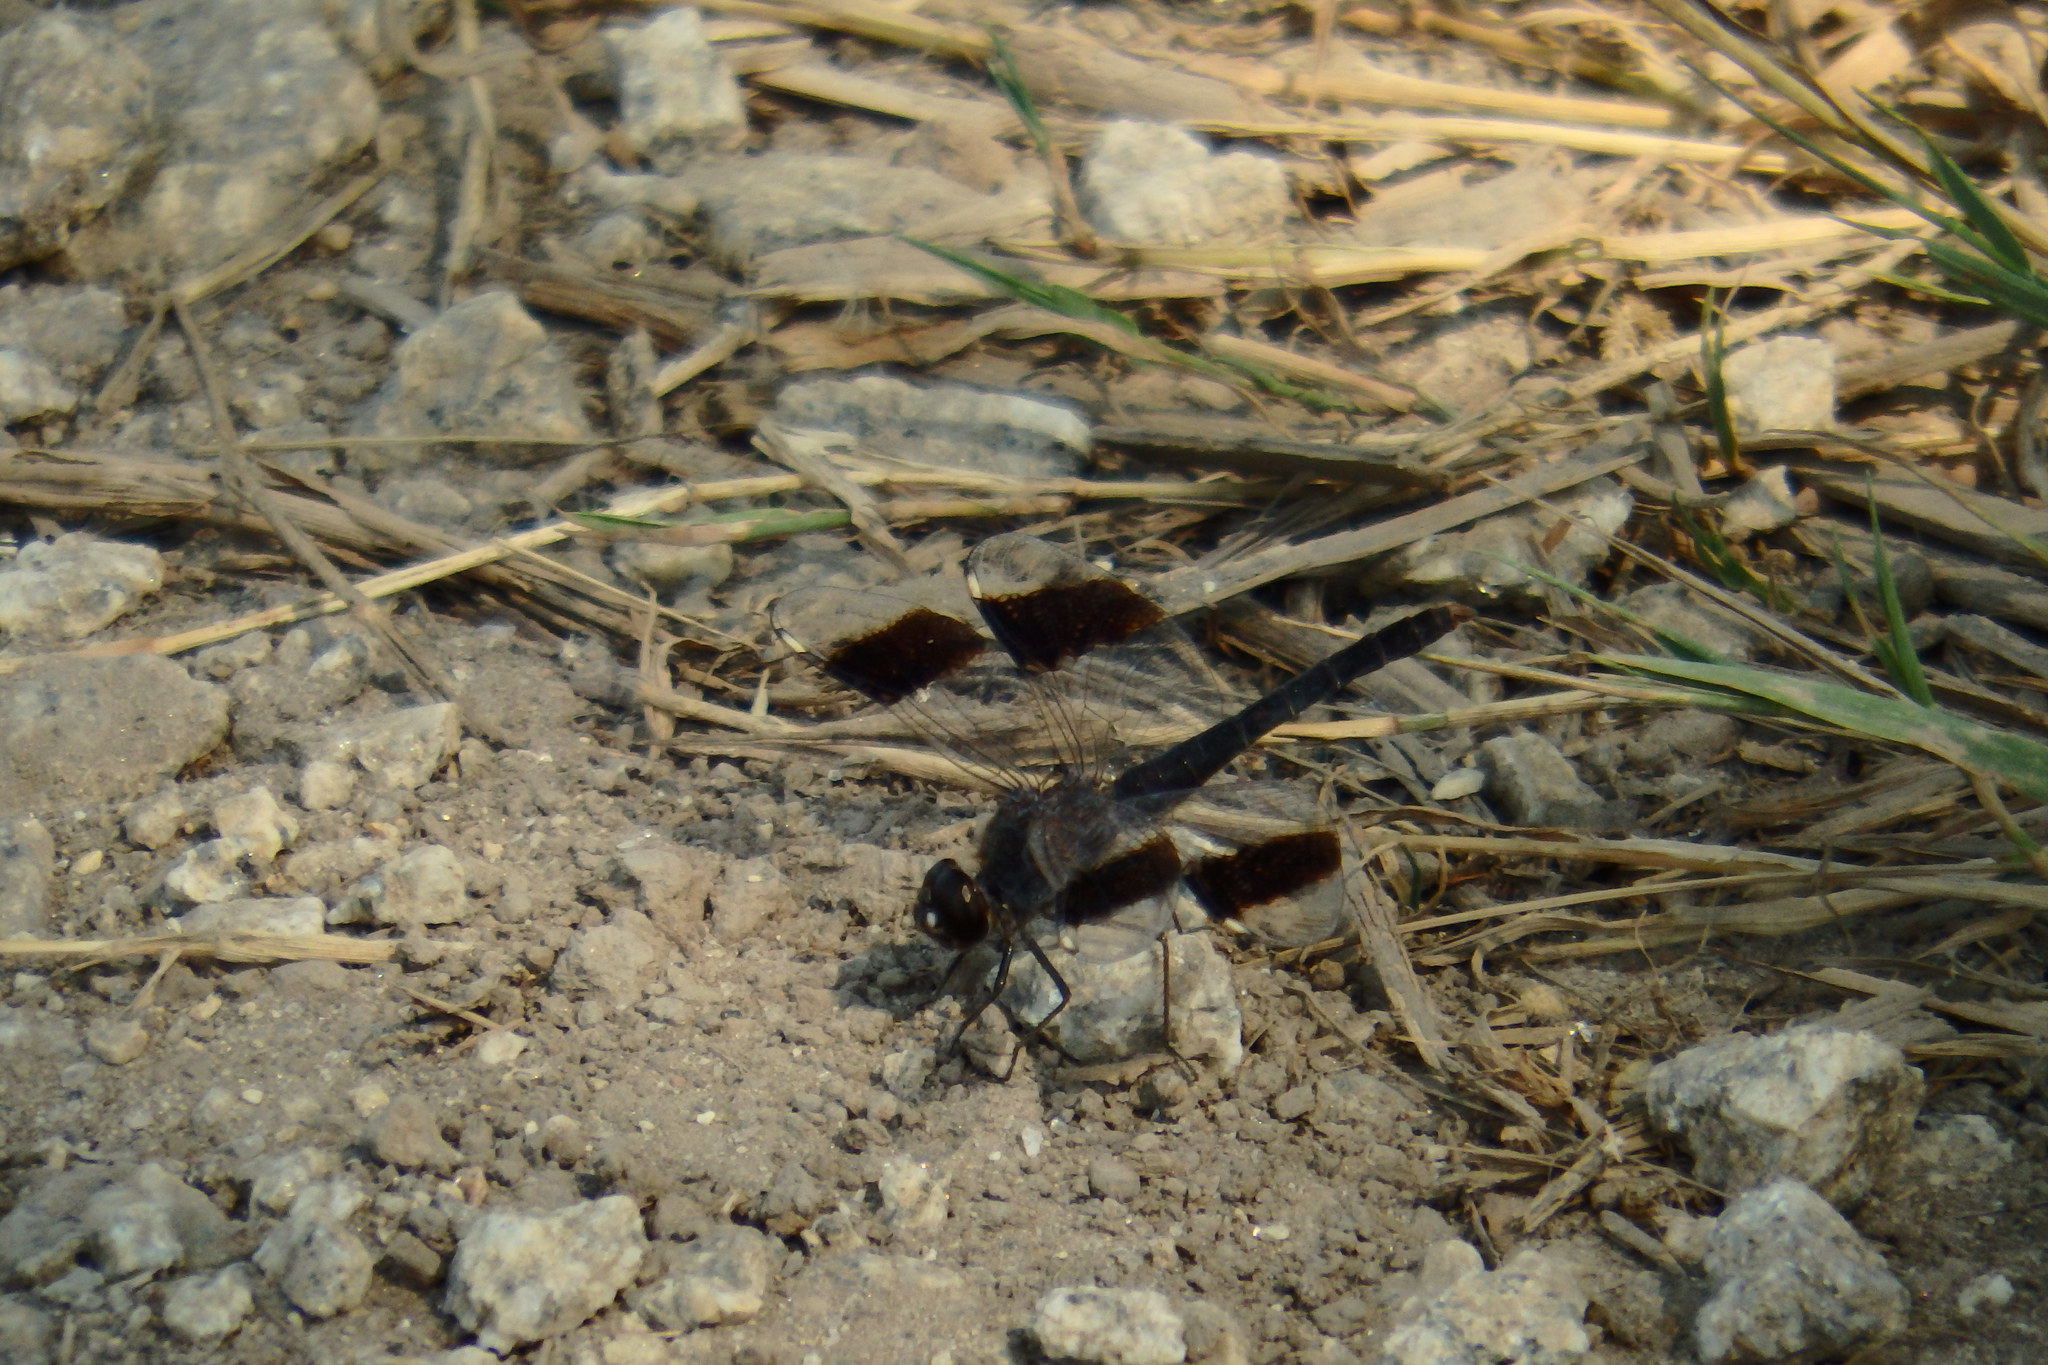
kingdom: Animalia
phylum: Arthropoda
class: Insecta
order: Odonata
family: Libellulidae
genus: Brachythemis
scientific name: Brachythemis impartita
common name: Banded groundling
